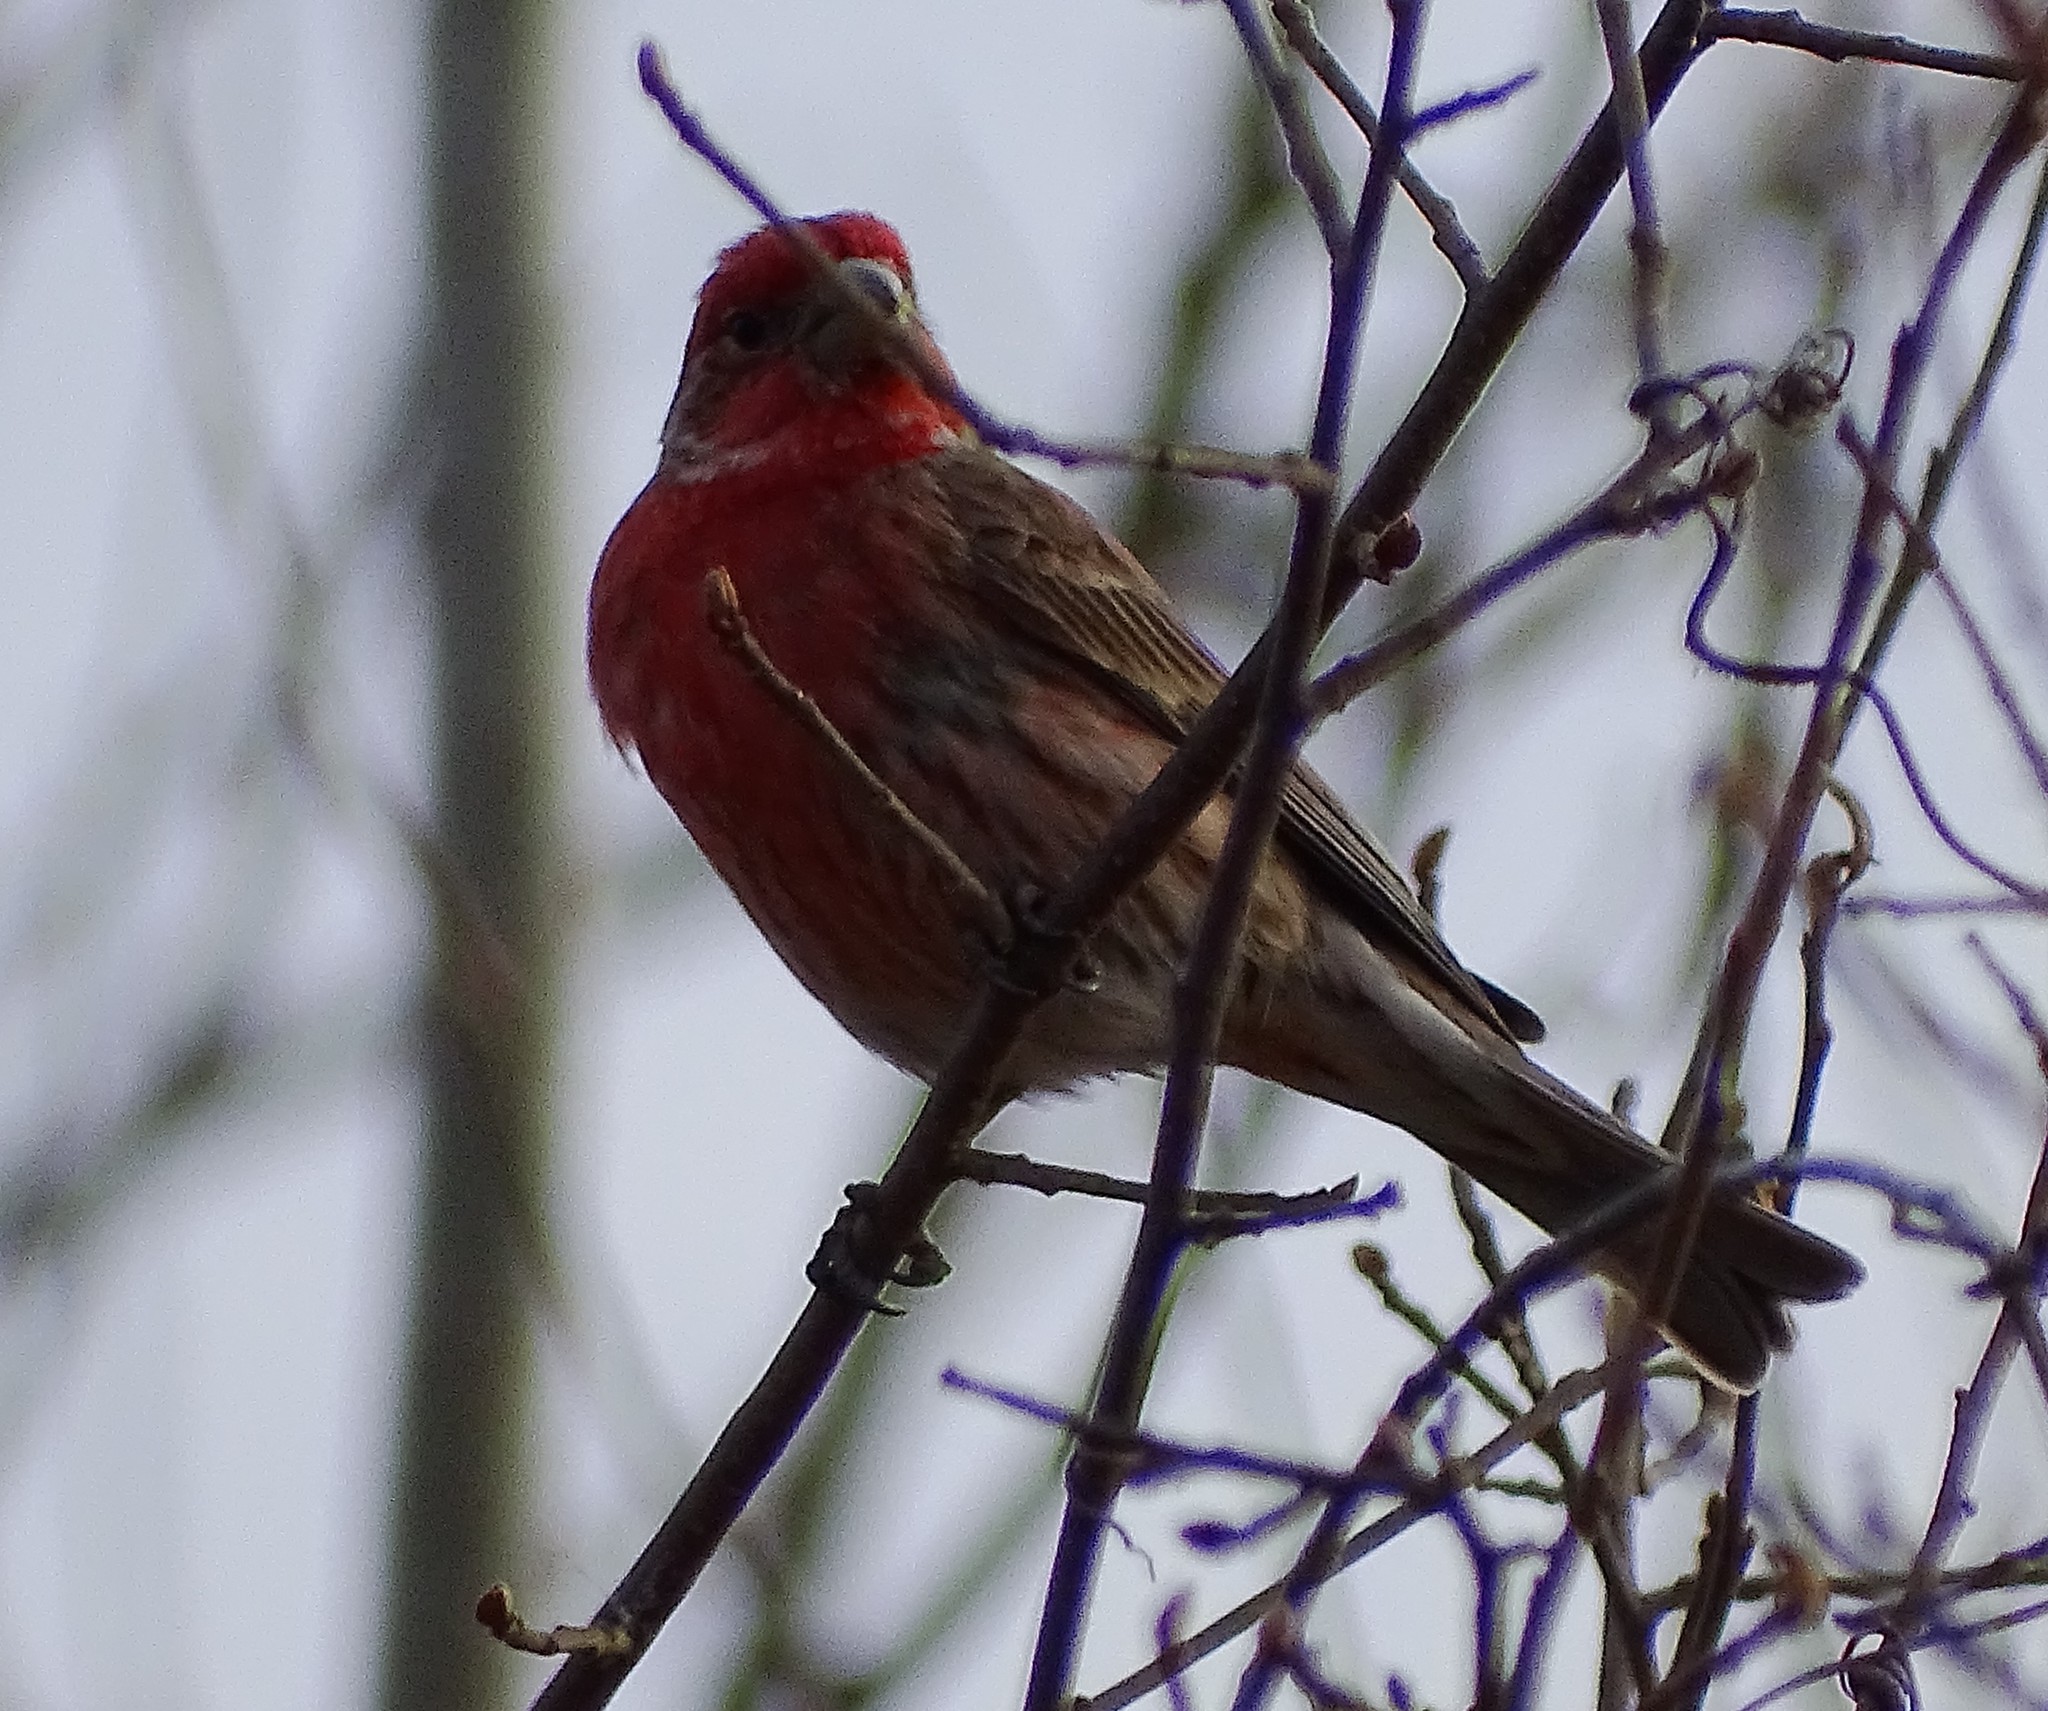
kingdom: Animalia
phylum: Chordata
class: Aves
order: Passeriformes
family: Fringillidae
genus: Haemorhous
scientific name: Haemorhous mexicanus
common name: House finch
